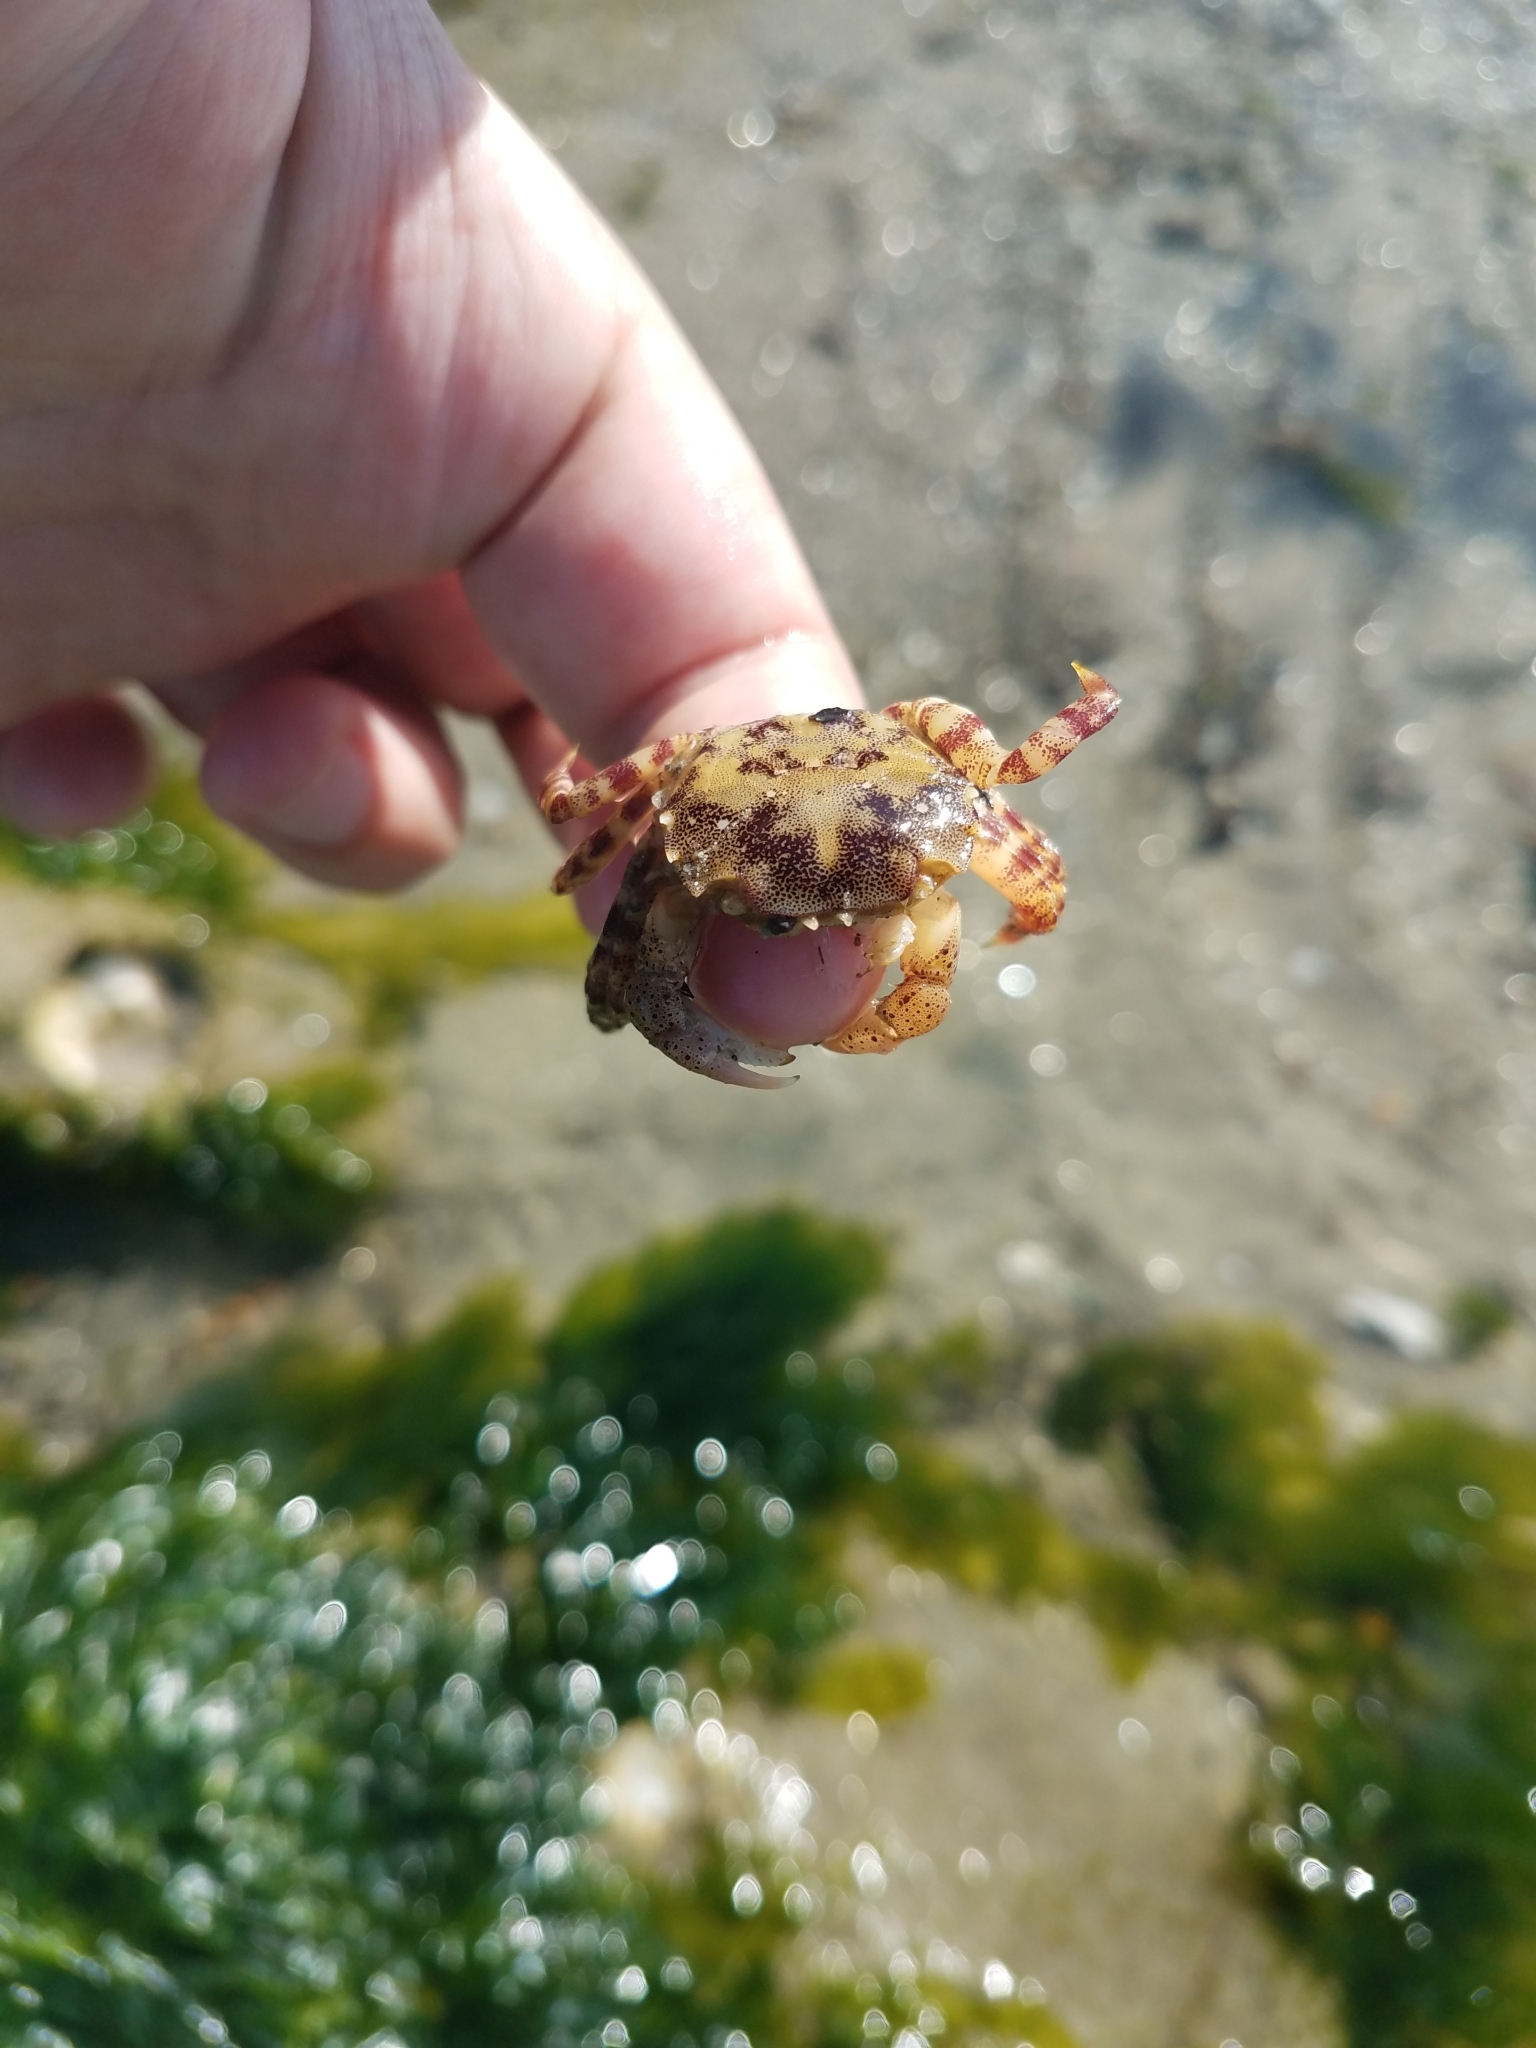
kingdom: Animalia
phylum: Arthropoda
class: Malacostraca
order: Decapoda
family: Varunidae
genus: Hemigrapsus
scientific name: Hemigrapsus sanguineus
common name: Asian shore crab
